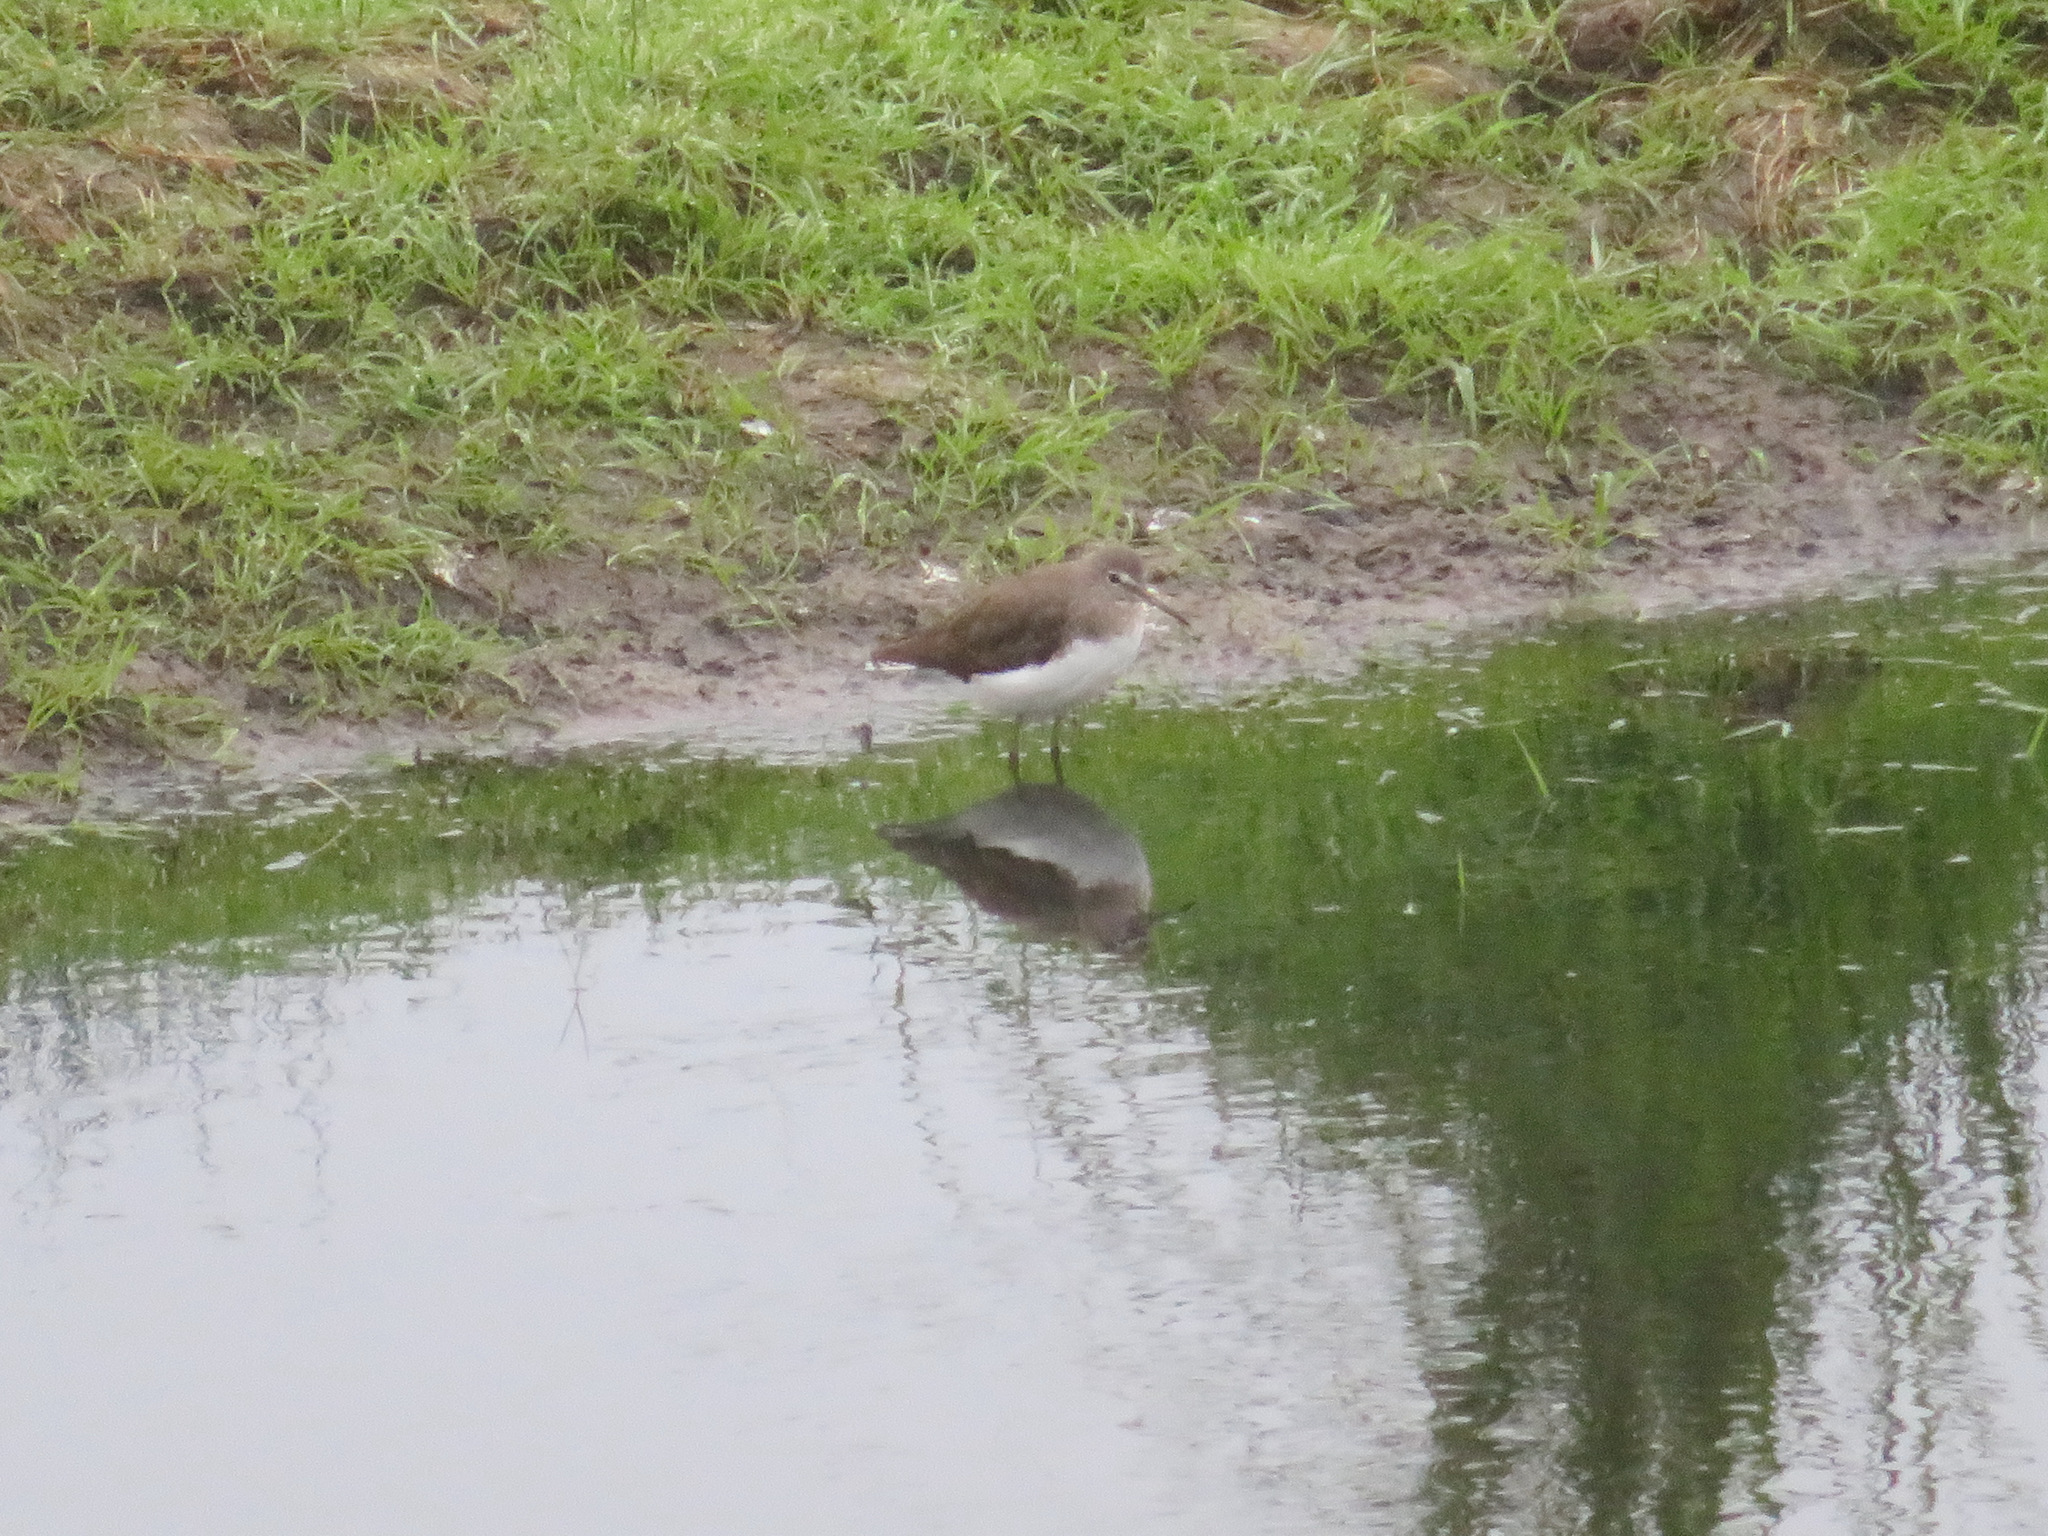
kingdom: Animalia
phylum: Chordata
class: Aves
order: Charadriiformes
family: Scolopacidae
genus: Tringa
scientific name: Tringa ochropus
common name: Green sandpiper
